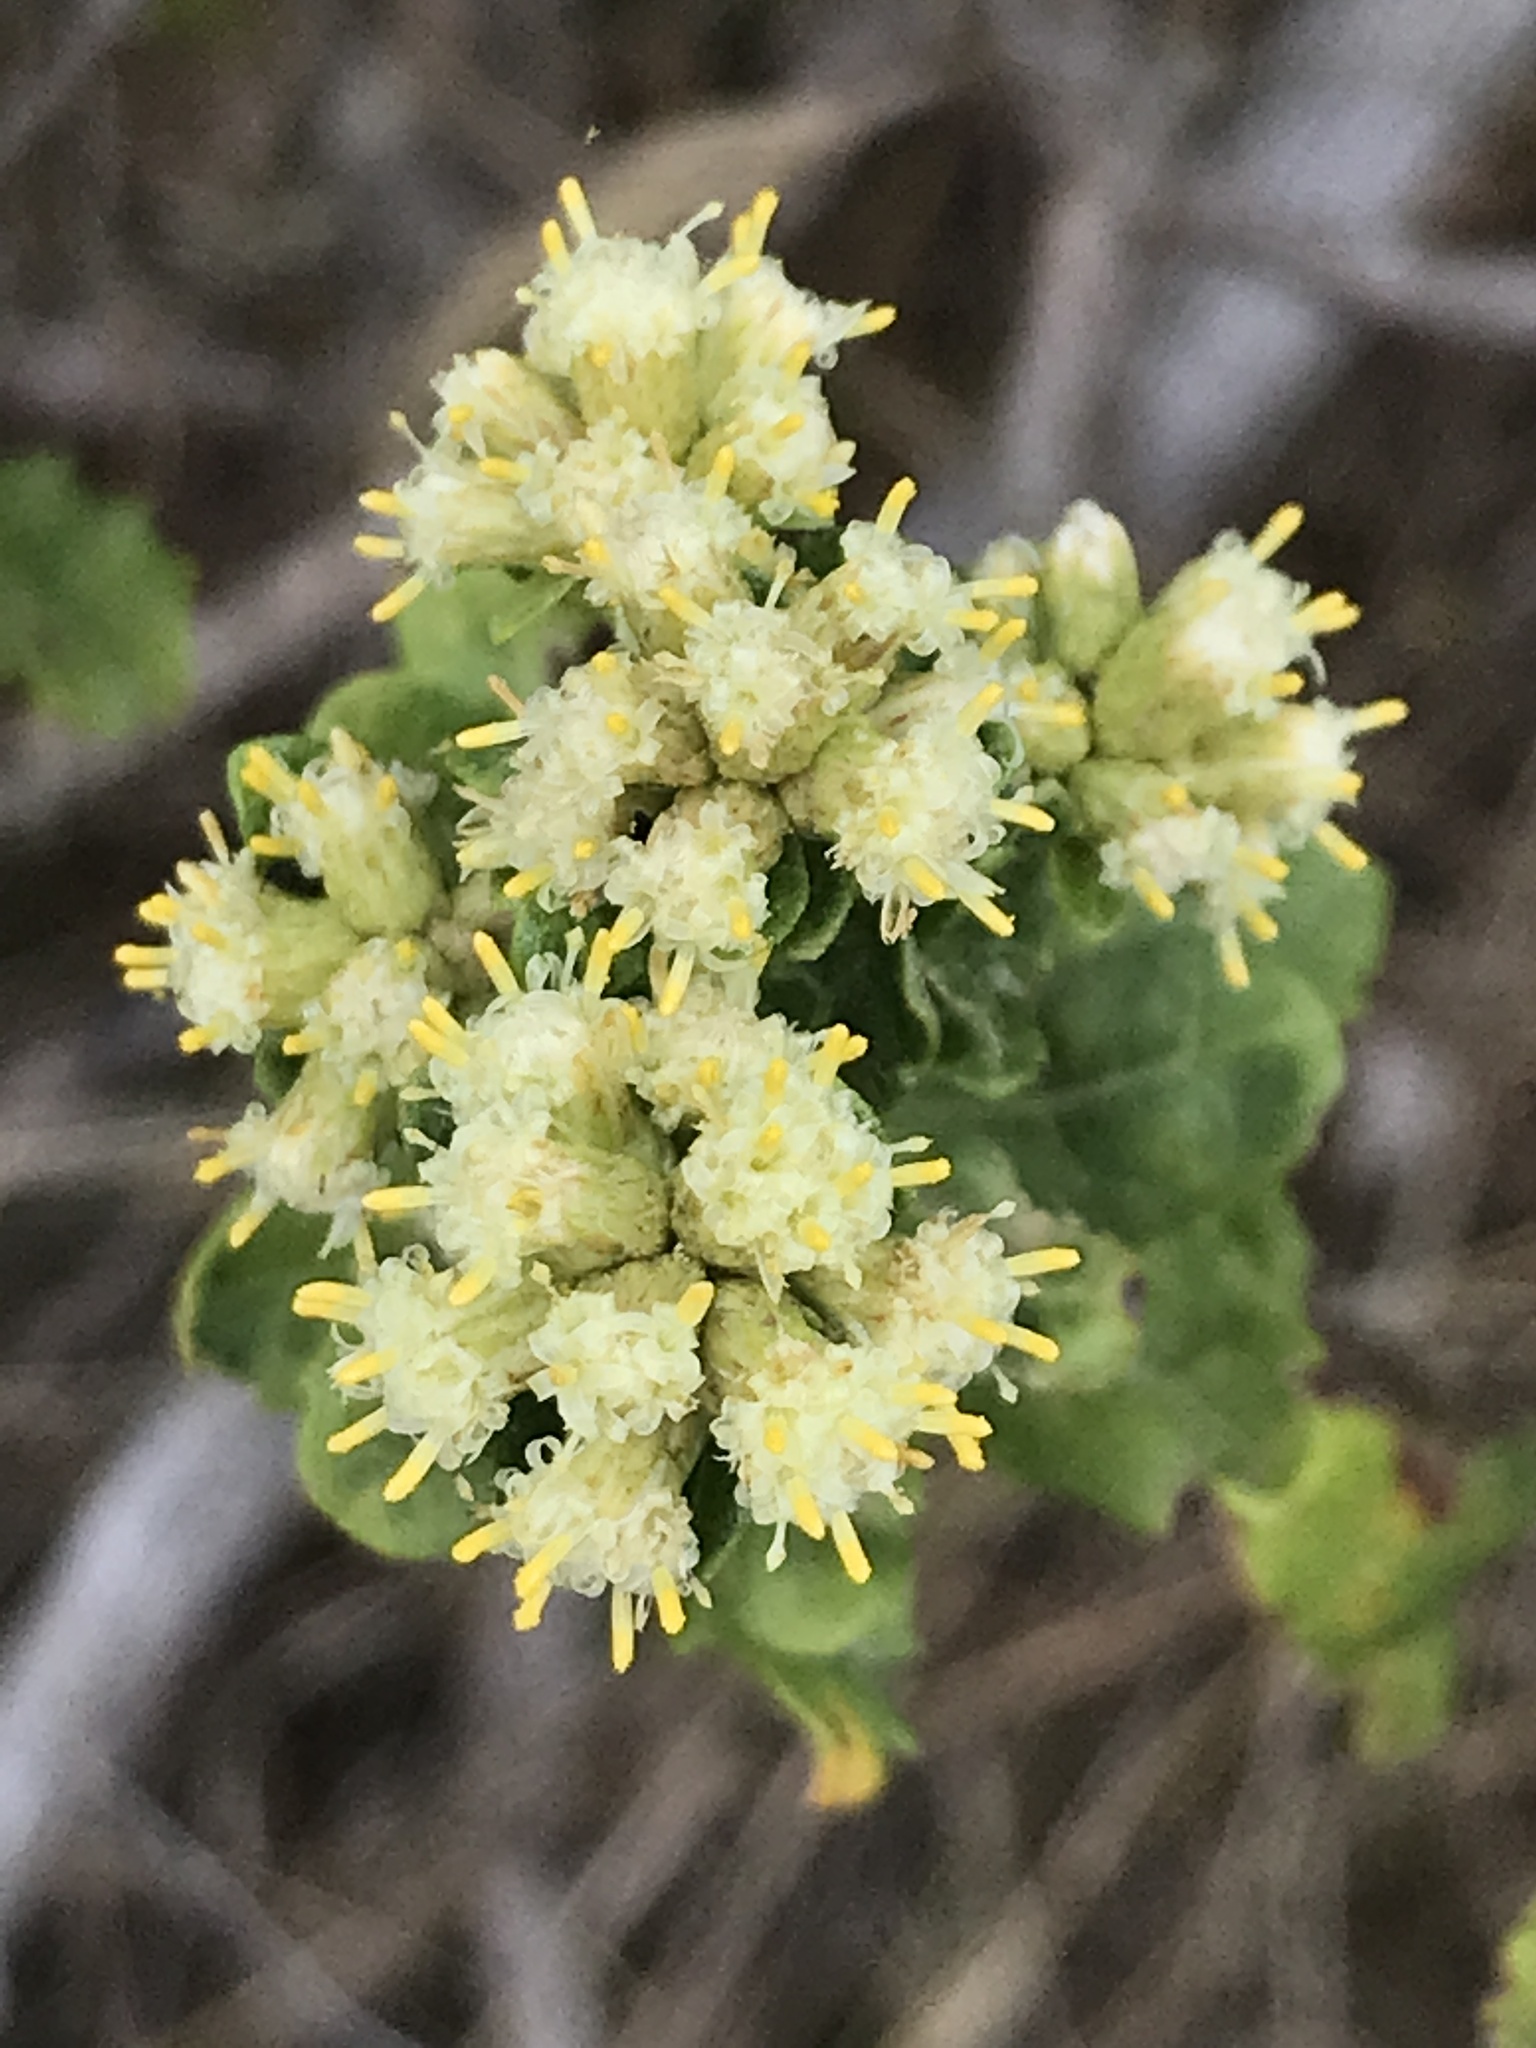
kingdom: Plantae
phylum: Tracheophyta
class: Magnoliopsida
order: Asterales
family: Asteraceae
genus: Baccharis
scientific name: Baccharis pilularis
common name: Coyotebrush
